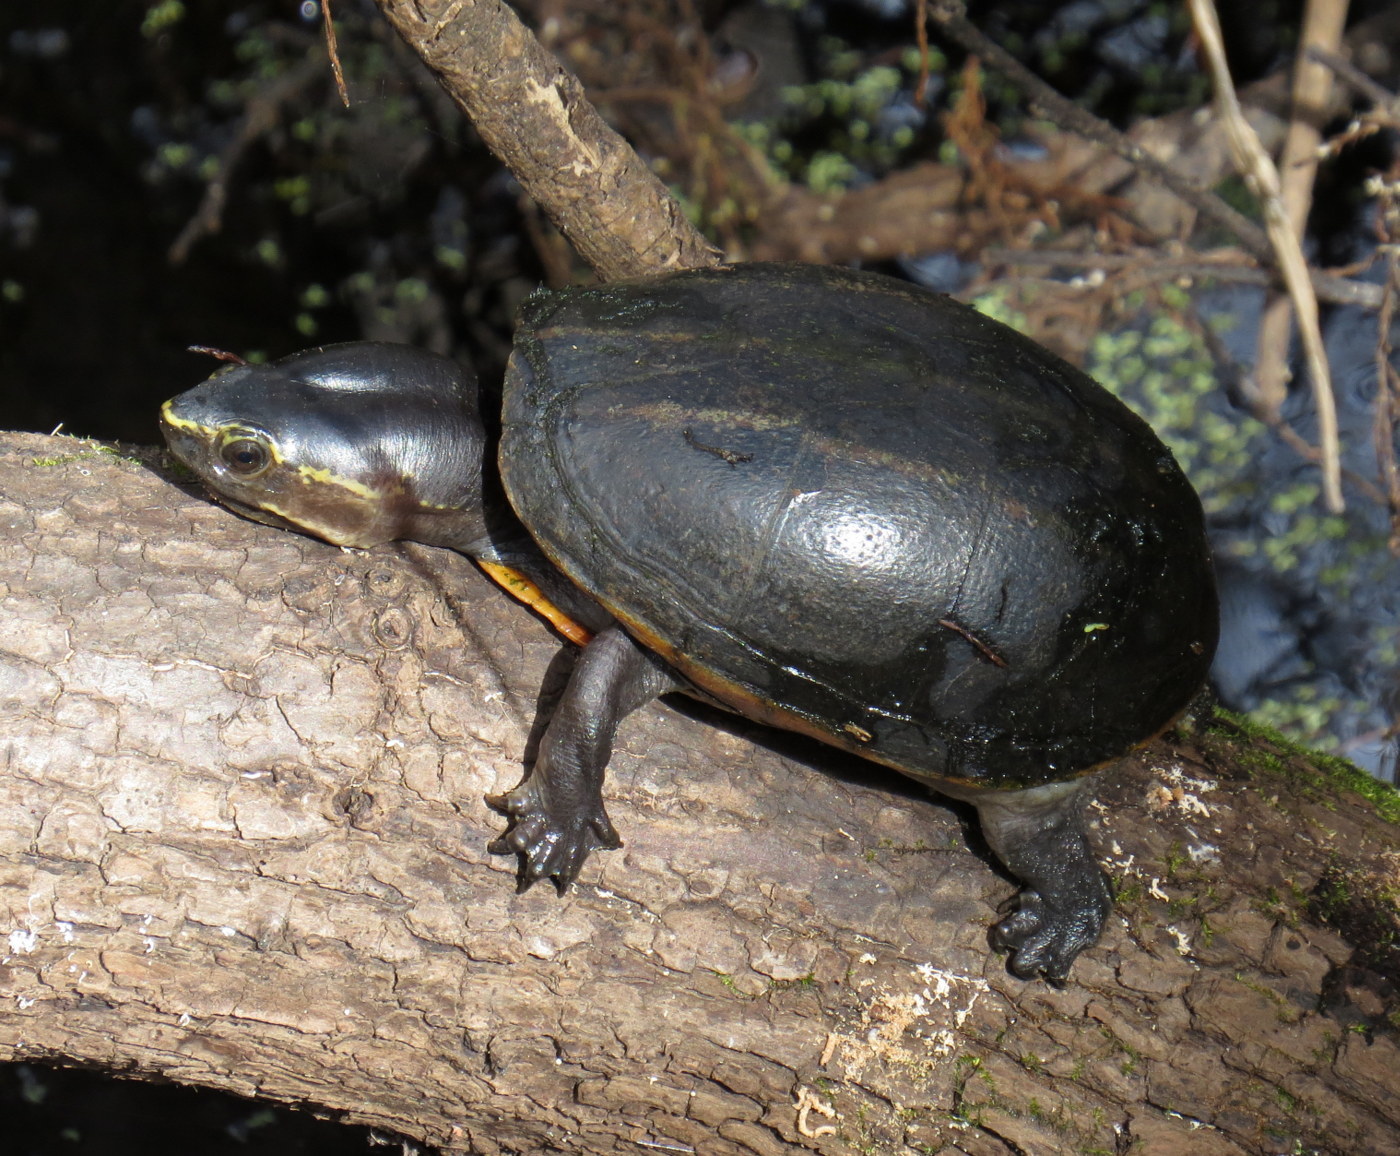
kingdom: Animalia
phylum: Chordata
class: Testudines
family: Kinosternidae
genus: Kinosternon
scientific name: Kinosternon baurii
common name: Striped mud turtle
